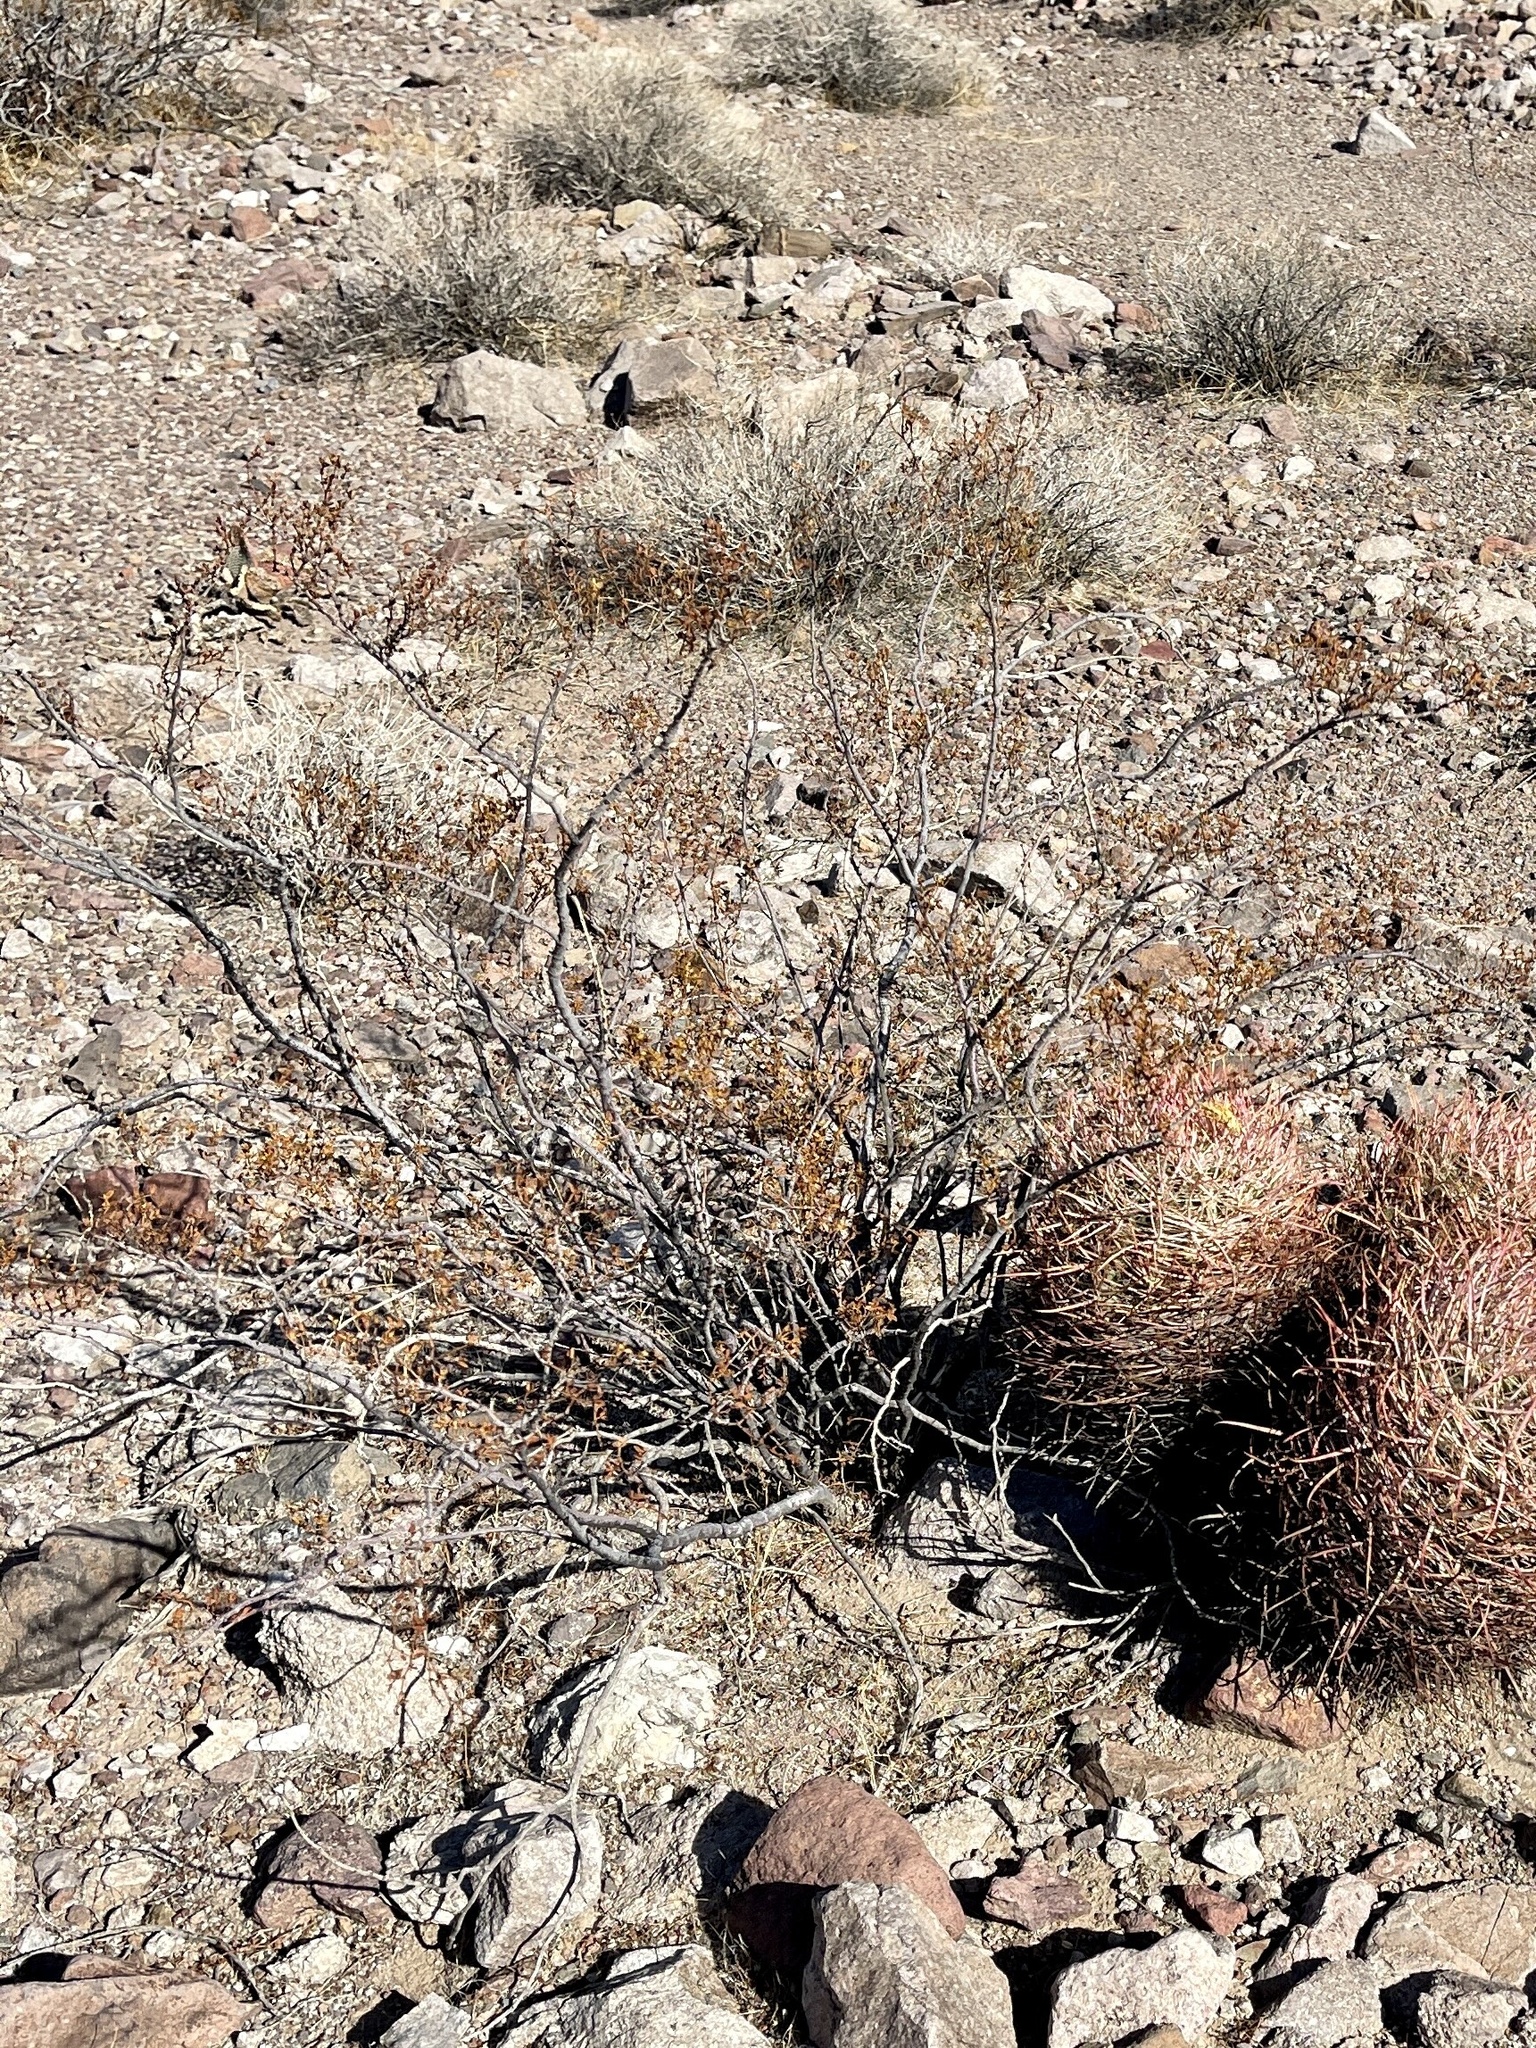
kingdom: Plantae
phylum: Tracheophyta
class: Magnoliopsida
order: Zygophyllales
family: Zygophyllaceae
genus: Larrea
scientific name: Larrea tridentata
